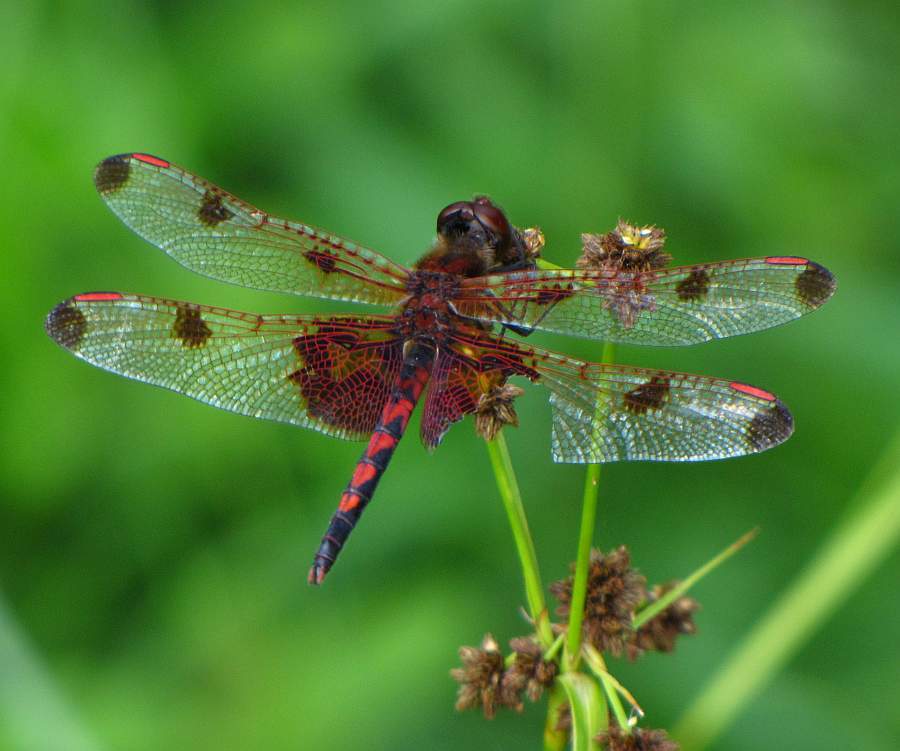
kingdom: Animalia
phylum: Arthropoda
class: Insecta
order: Odonata
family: Libellulidae
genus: Celithemis
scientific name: Celithemis elisa
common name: Calico pennant
